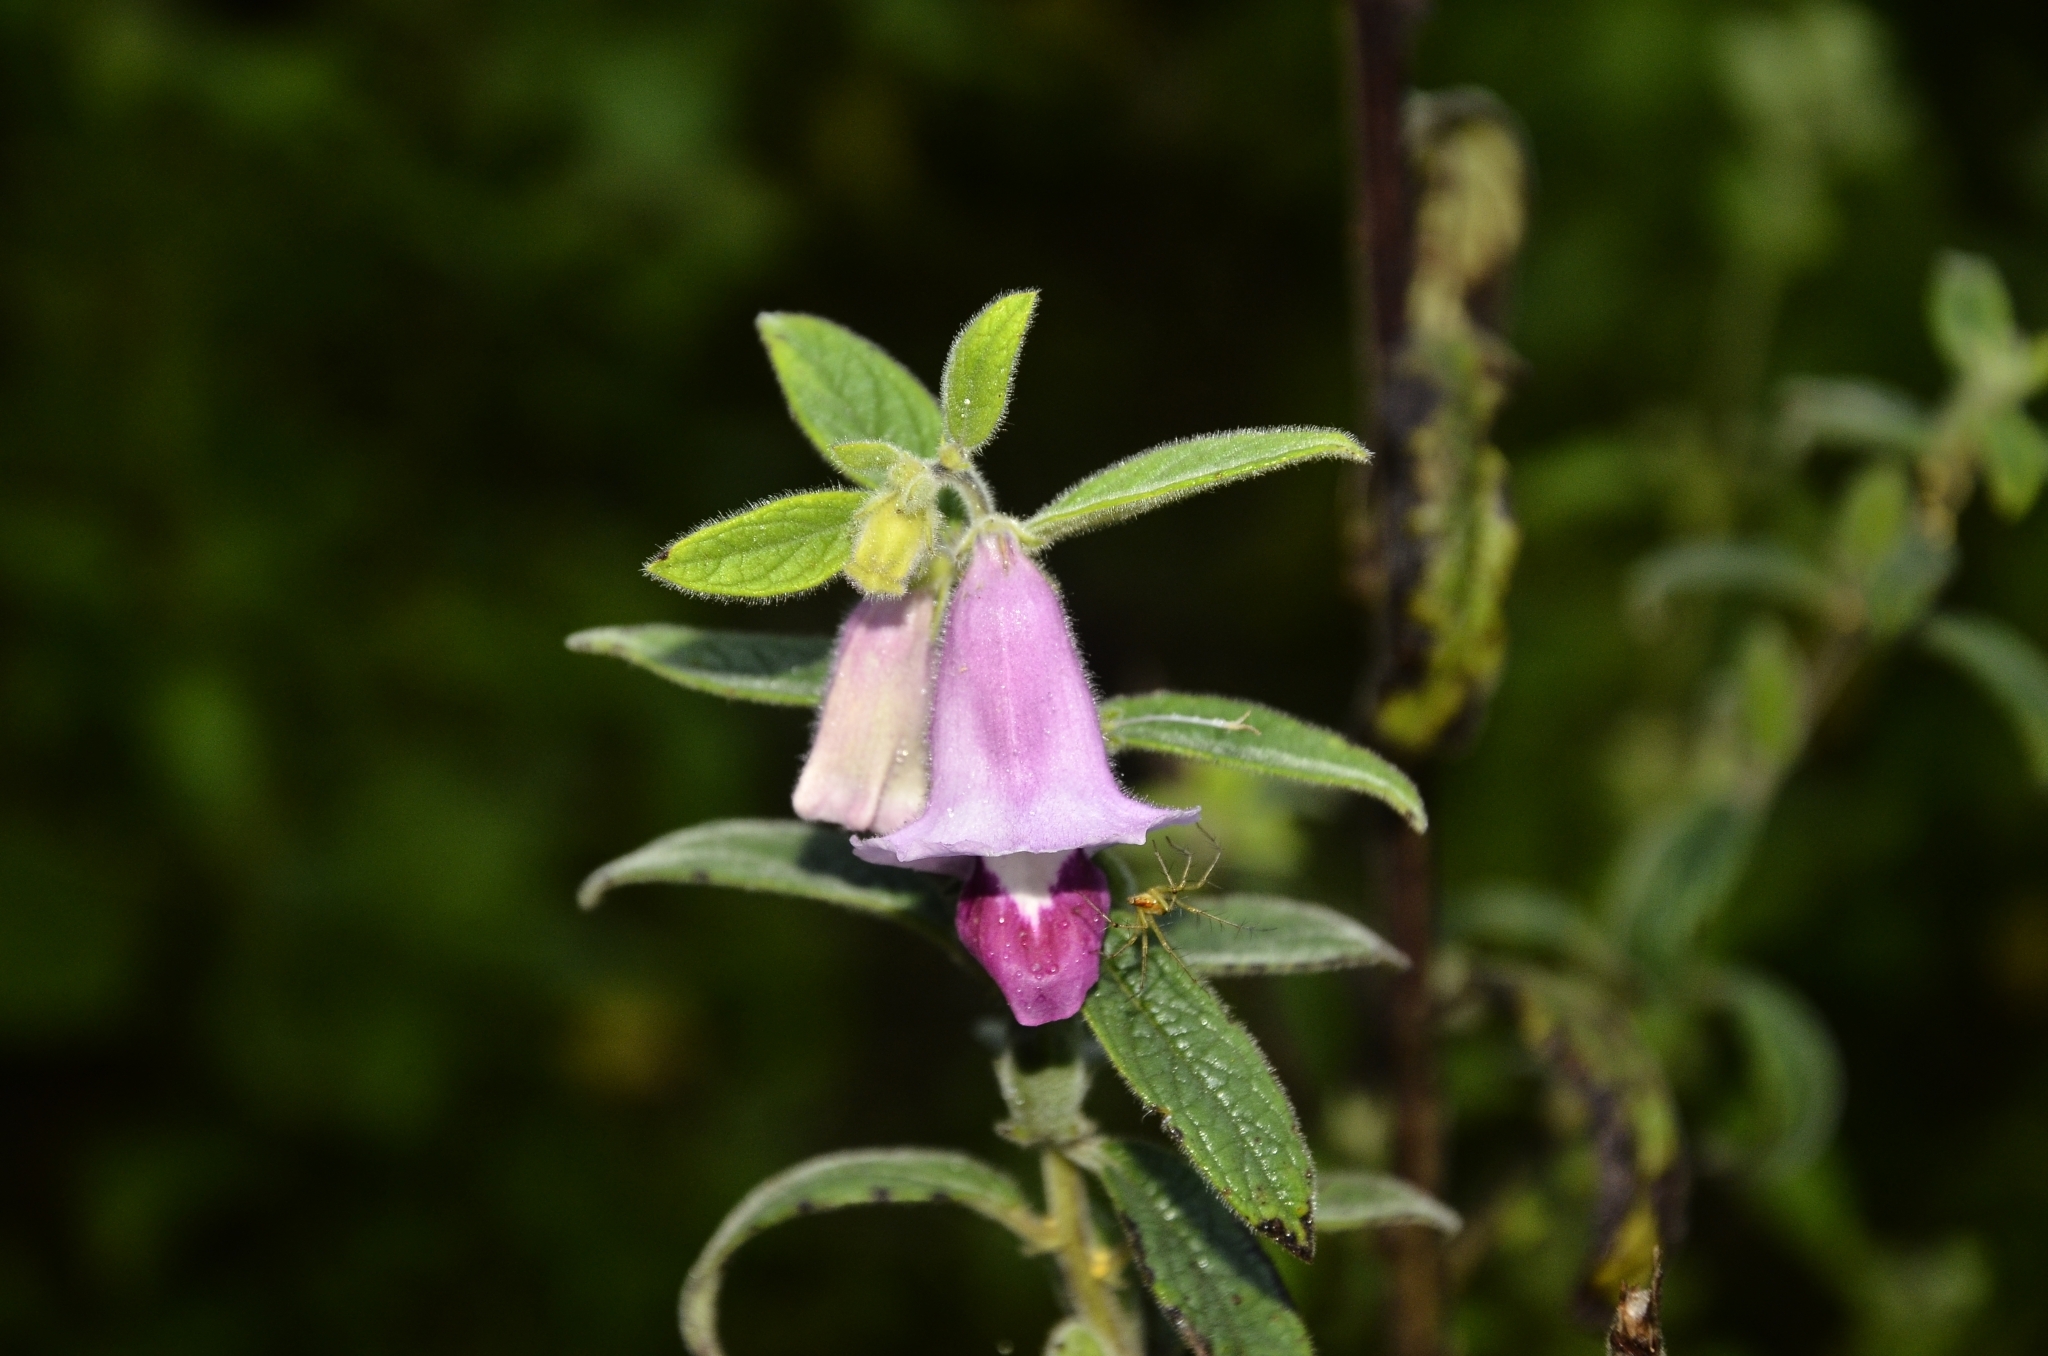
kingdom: Plantae
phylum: Tracheophyta
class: Magnoliopsida
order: Lamiales
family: Pedaliaceae
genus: Sesamum
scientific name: Sesamum indicum
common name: Sesame
